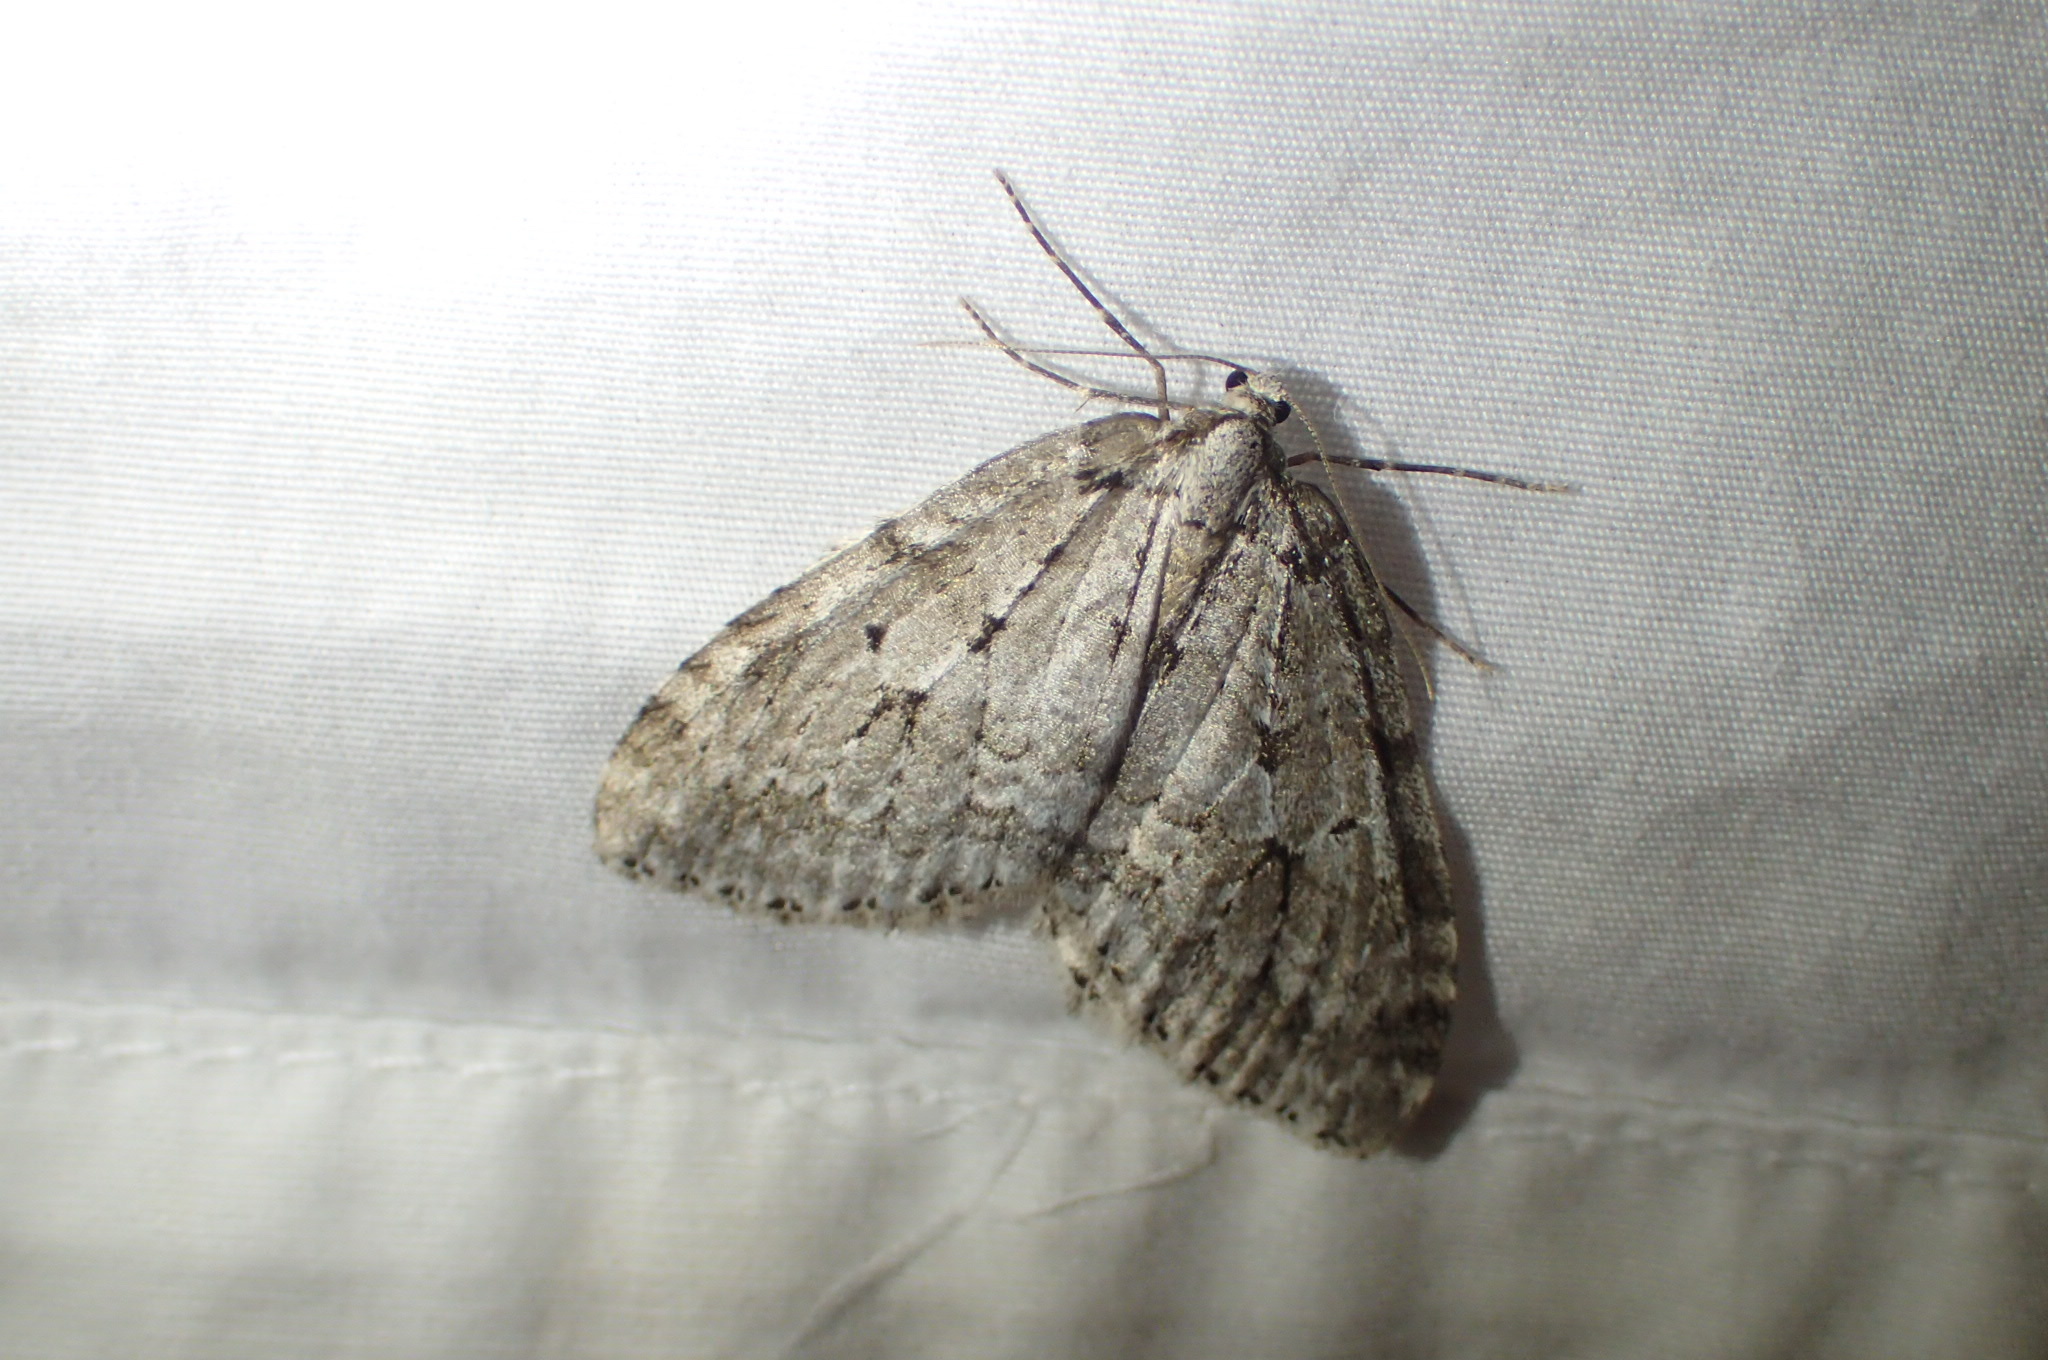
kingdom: Animalia
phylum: Arthropoda
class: Insecta
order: Lepidoptera
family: Geometridae
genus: Epirrita
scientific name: Epirrita autumnata
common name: Autumnal moth
